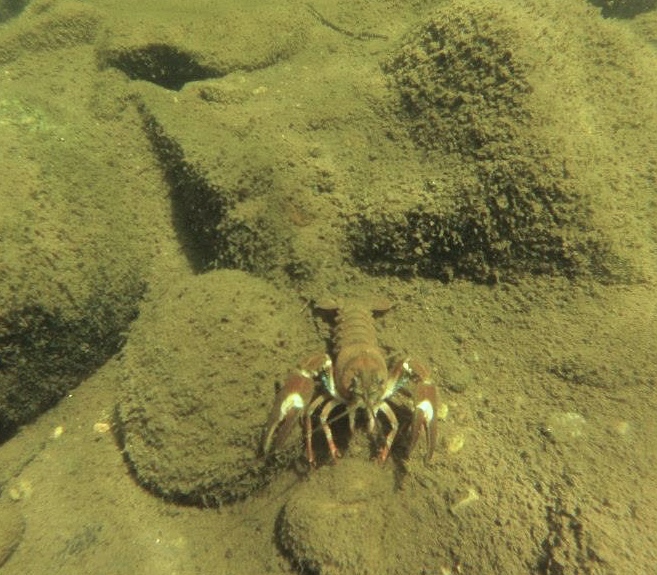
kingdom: Animalia
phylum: Arthropoda
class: Malacostraca
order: Decapoda
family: Astacidae
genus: Pacifastacus
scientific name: Pacifastacus leniusculus
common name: Signal crayfish
